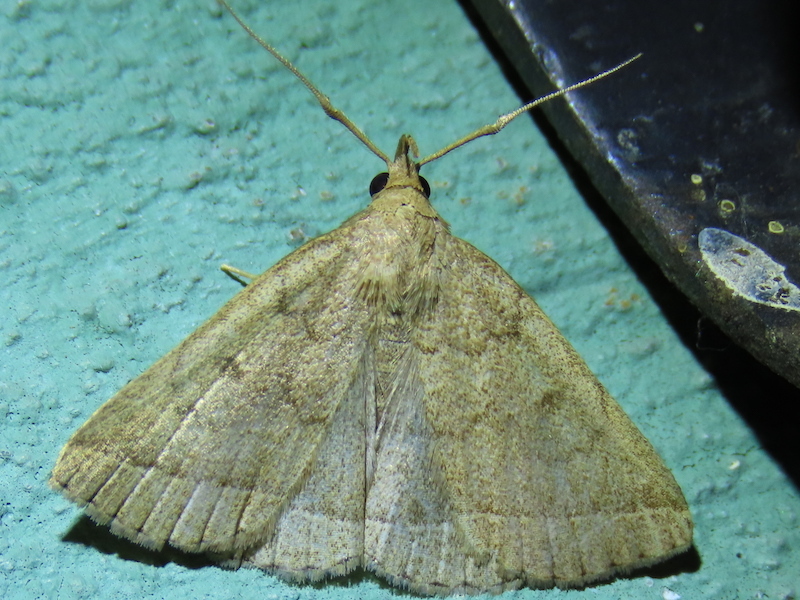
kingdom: Animalia
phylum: Arthropoda
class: Insecta
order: Lepidoptera
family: Erebidae
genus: Zanclognatha
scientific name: Zanclognatha jacchusalis
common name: Yellowish zanclognatha
